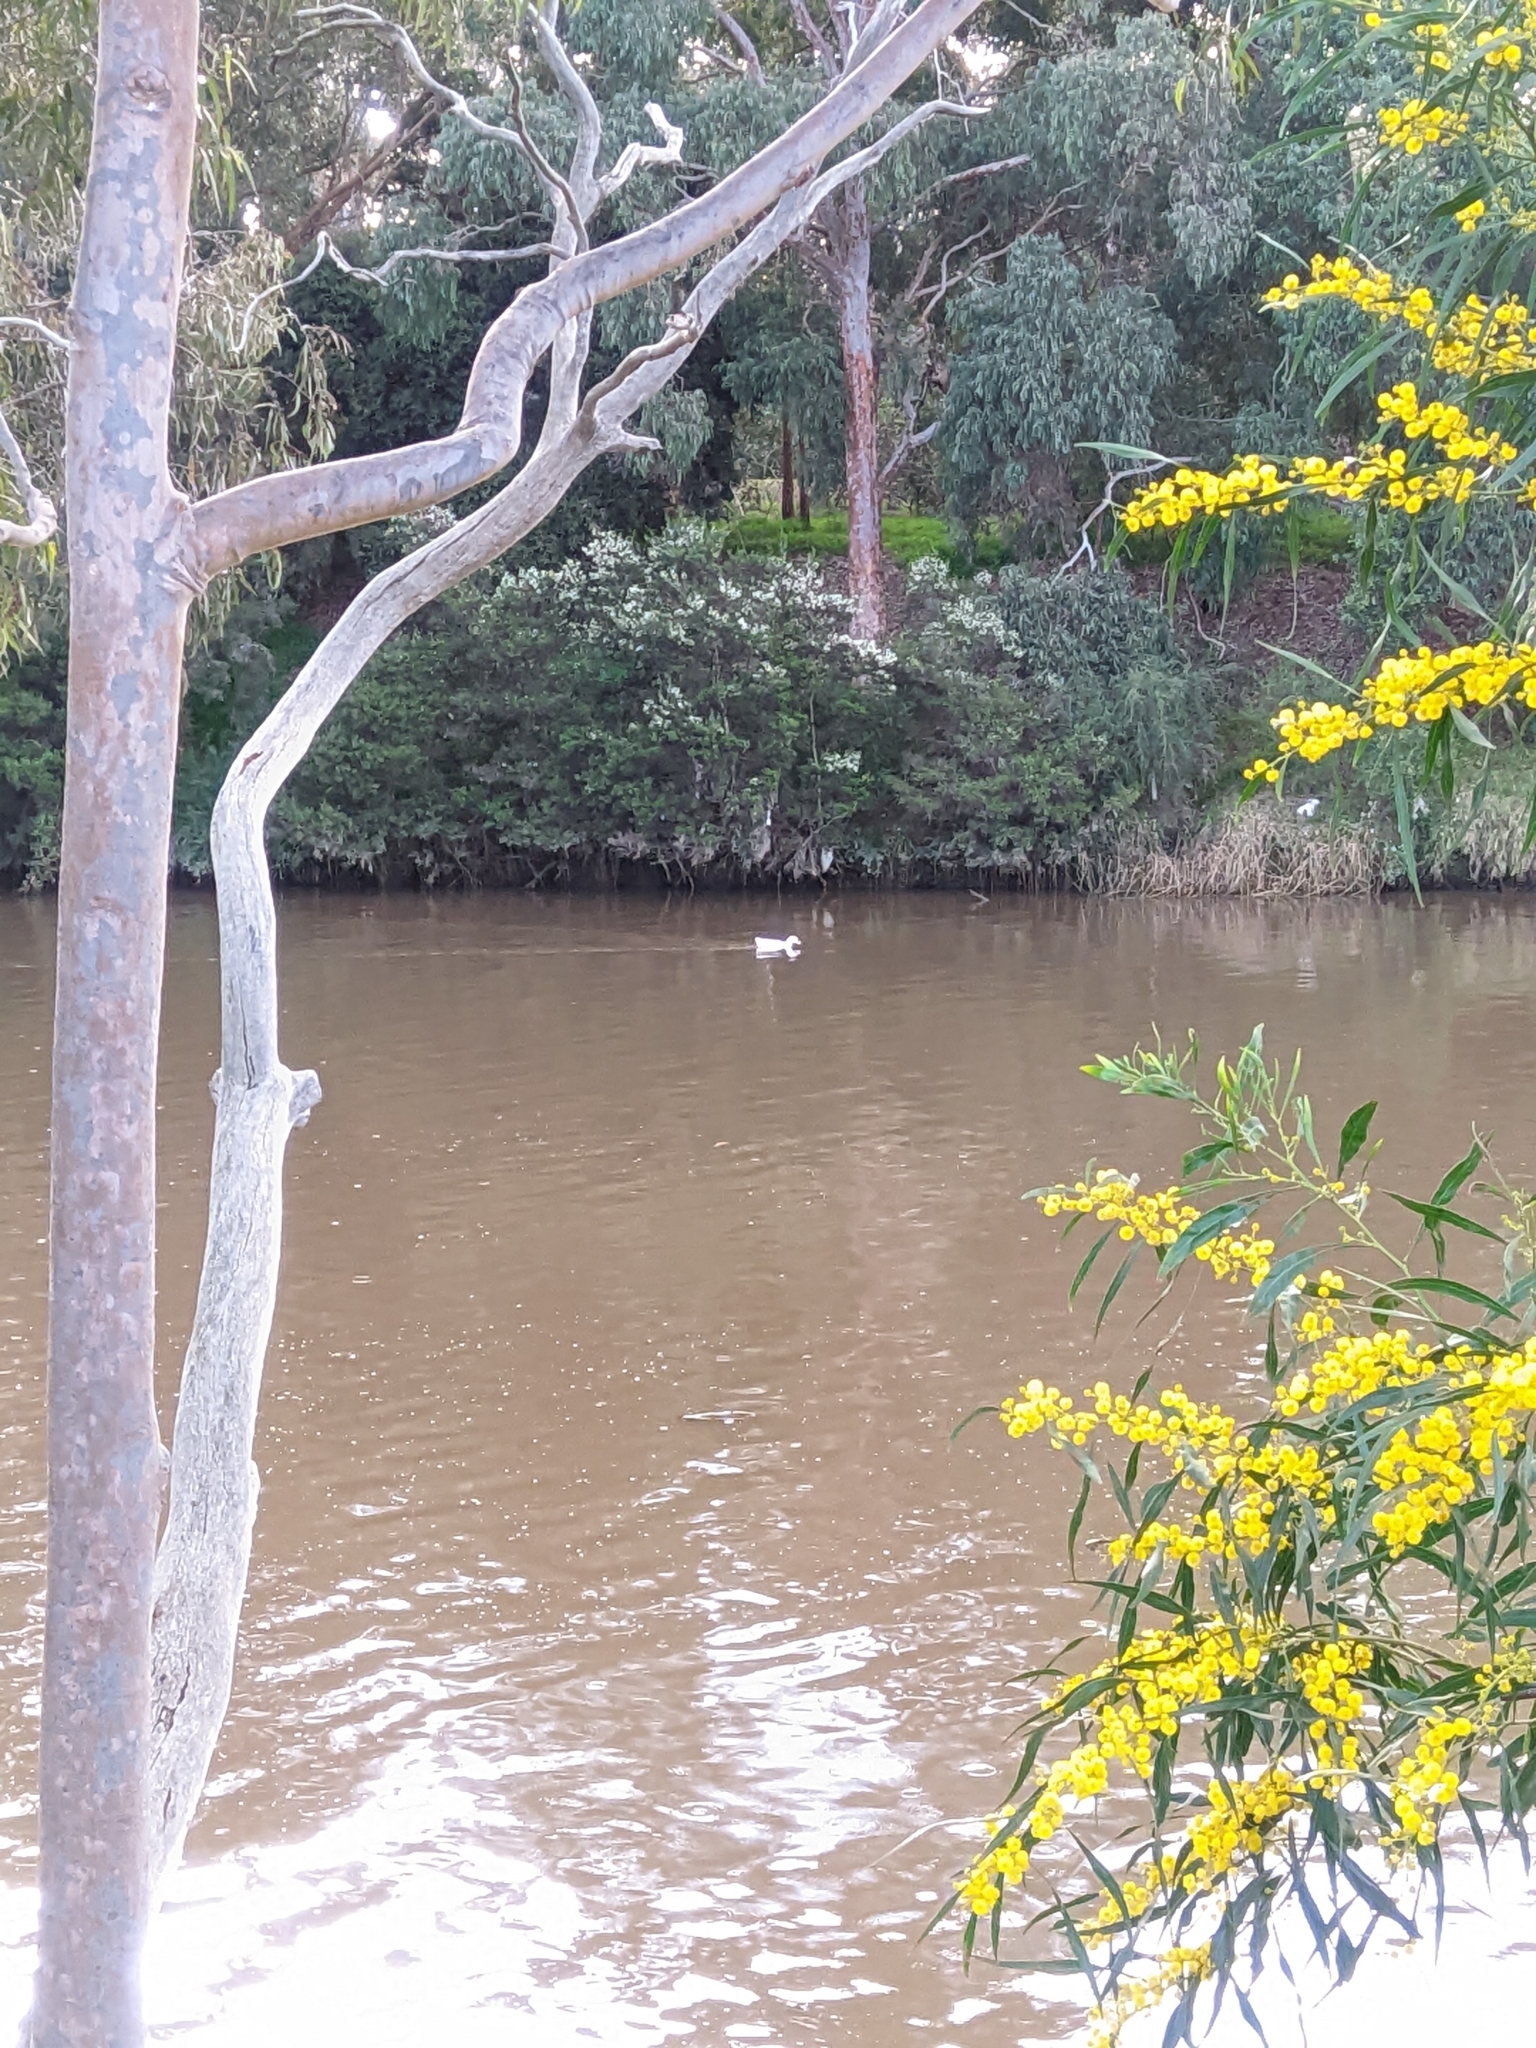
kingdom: Animalia
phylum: Chordata
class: Aves
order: Anseriformes
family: Anatidae
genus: Anas
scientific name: Anas platyrhynchos
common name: Mallard
